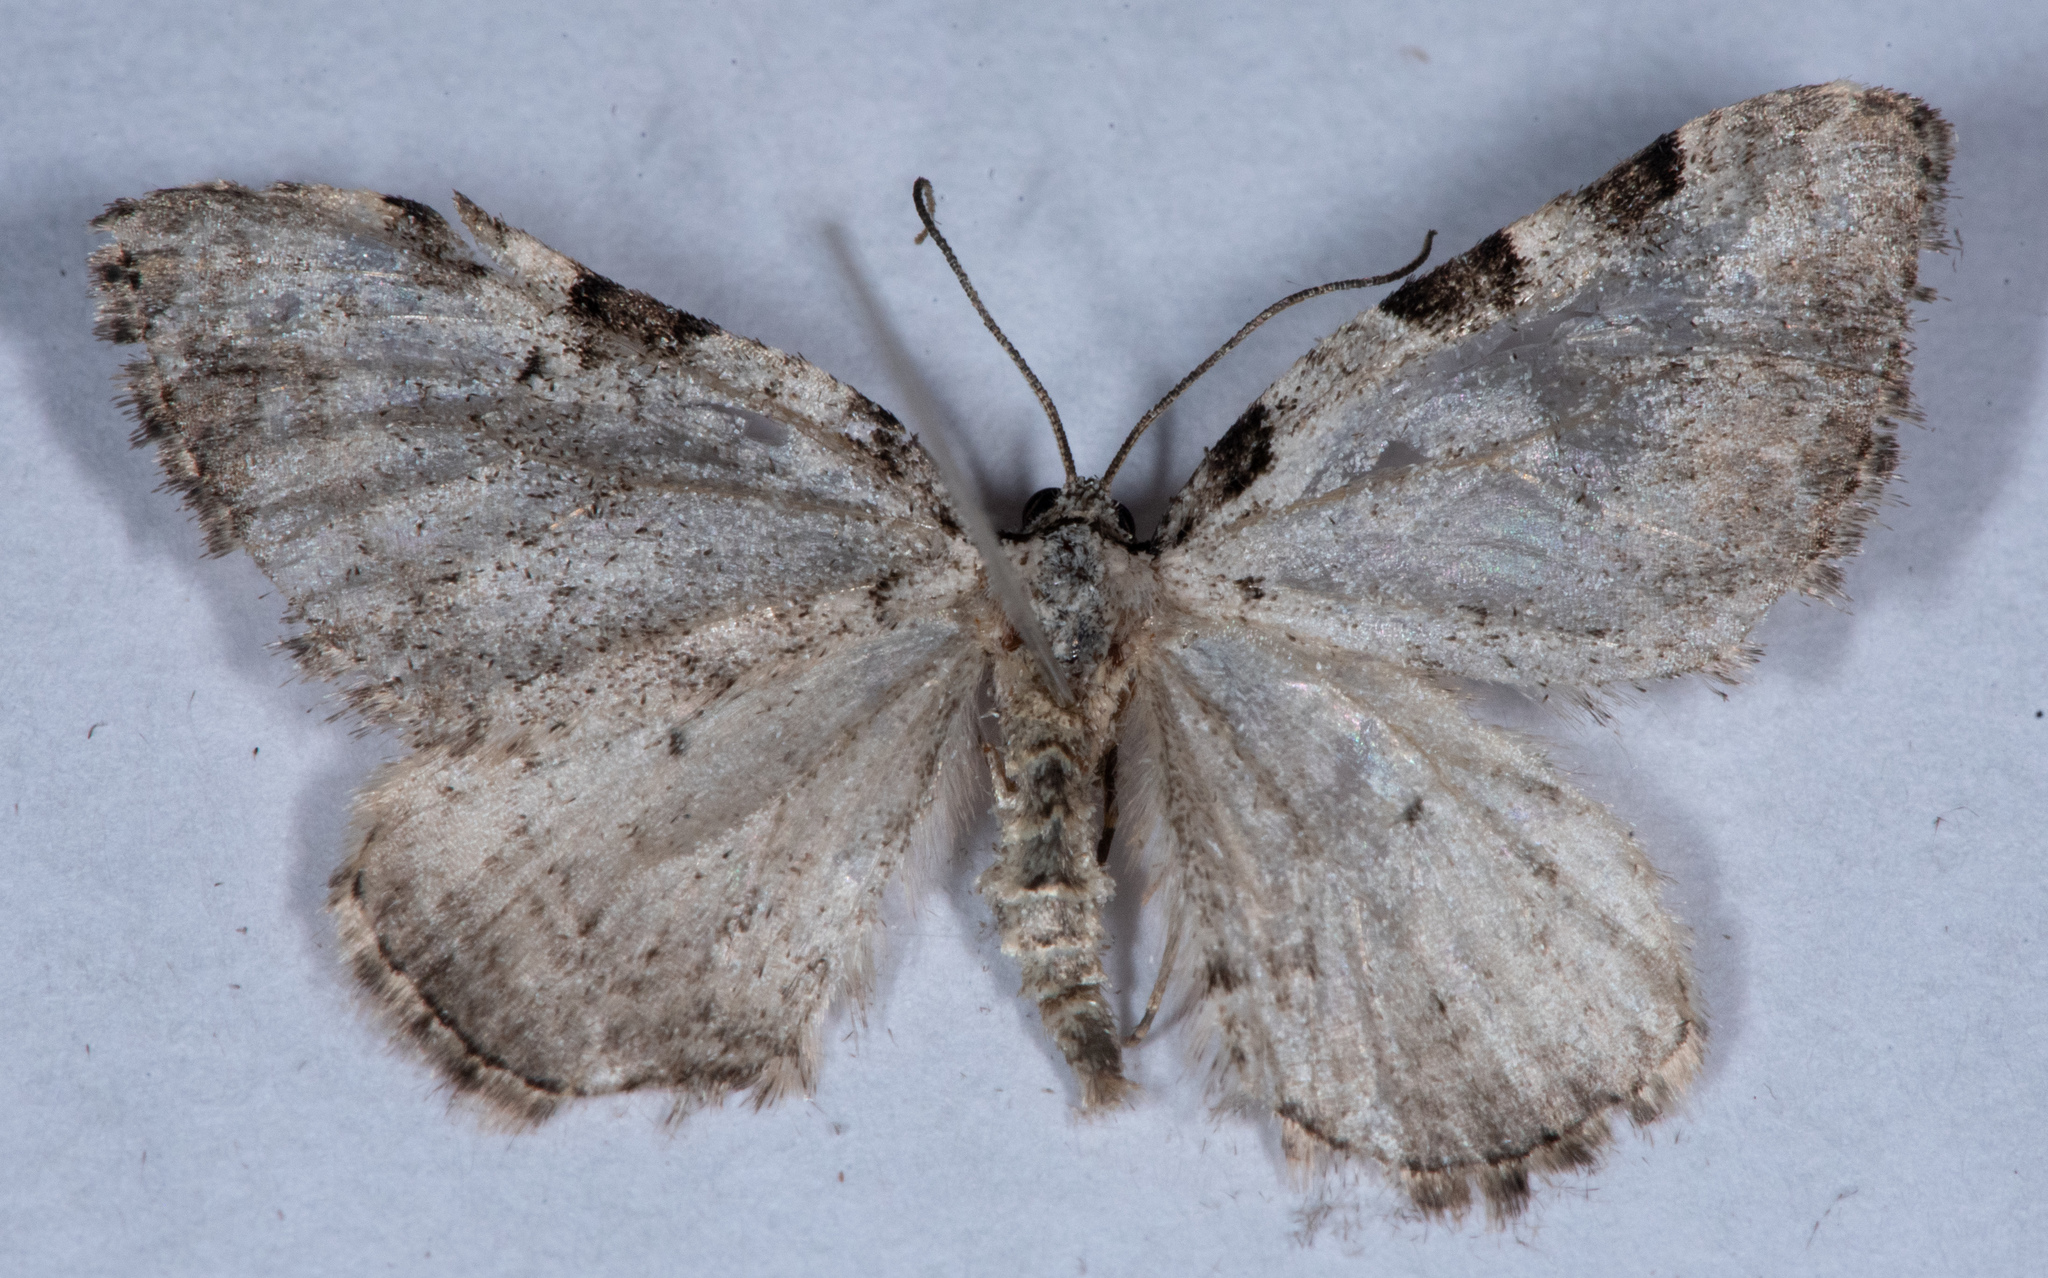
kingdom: Animalia
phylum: Arthropoda
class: Insecta
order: Lepidoptera
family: Geometridae
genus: Perizoma
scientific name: Perizoma costiguttata
